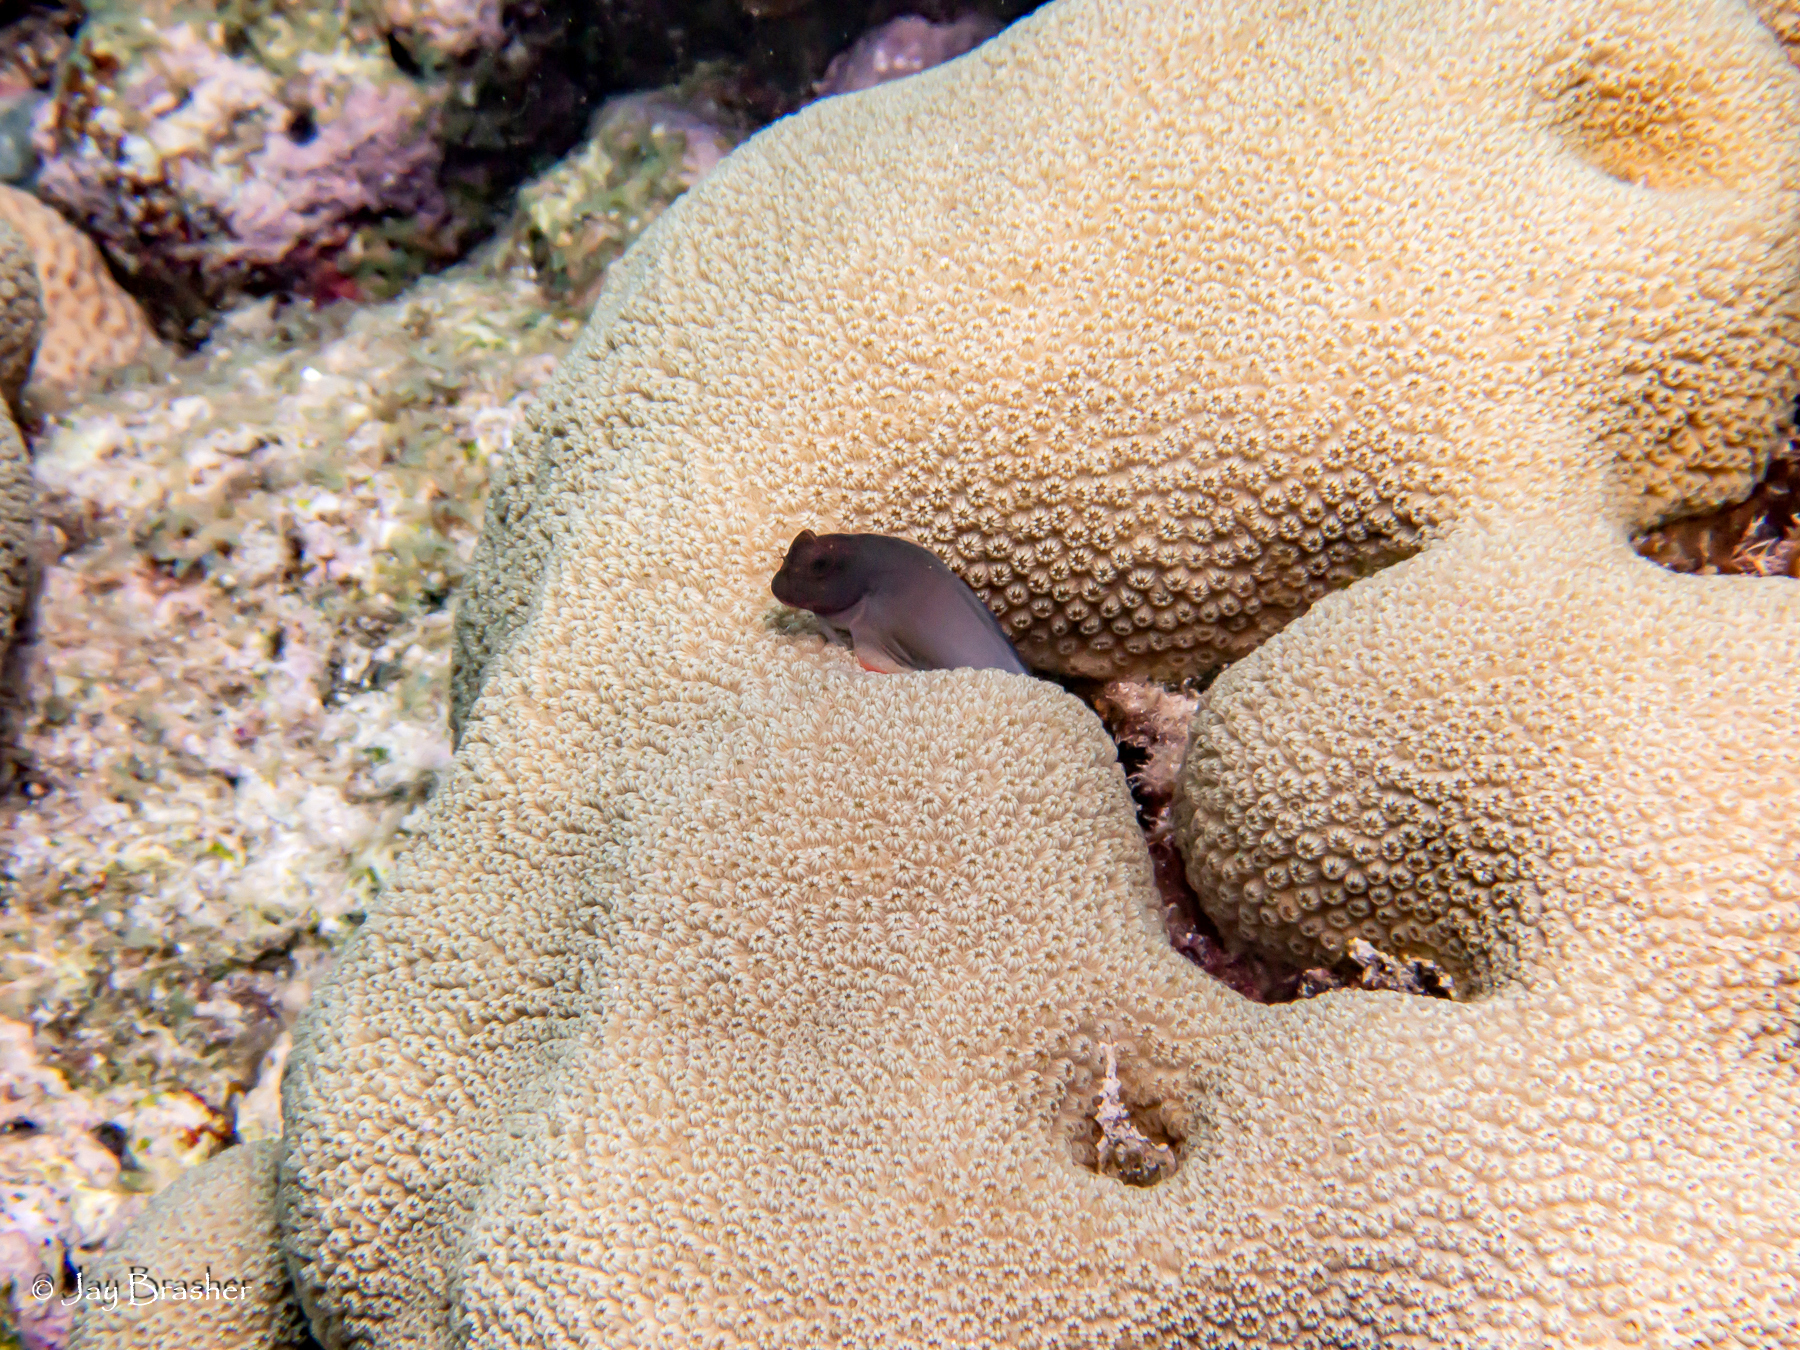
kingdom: Animalia
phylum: Chordata
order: Perciformes
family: Blenniidae
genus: Ophioblennius
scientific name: Ophioblennius macclurei
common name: Redlip blenny
